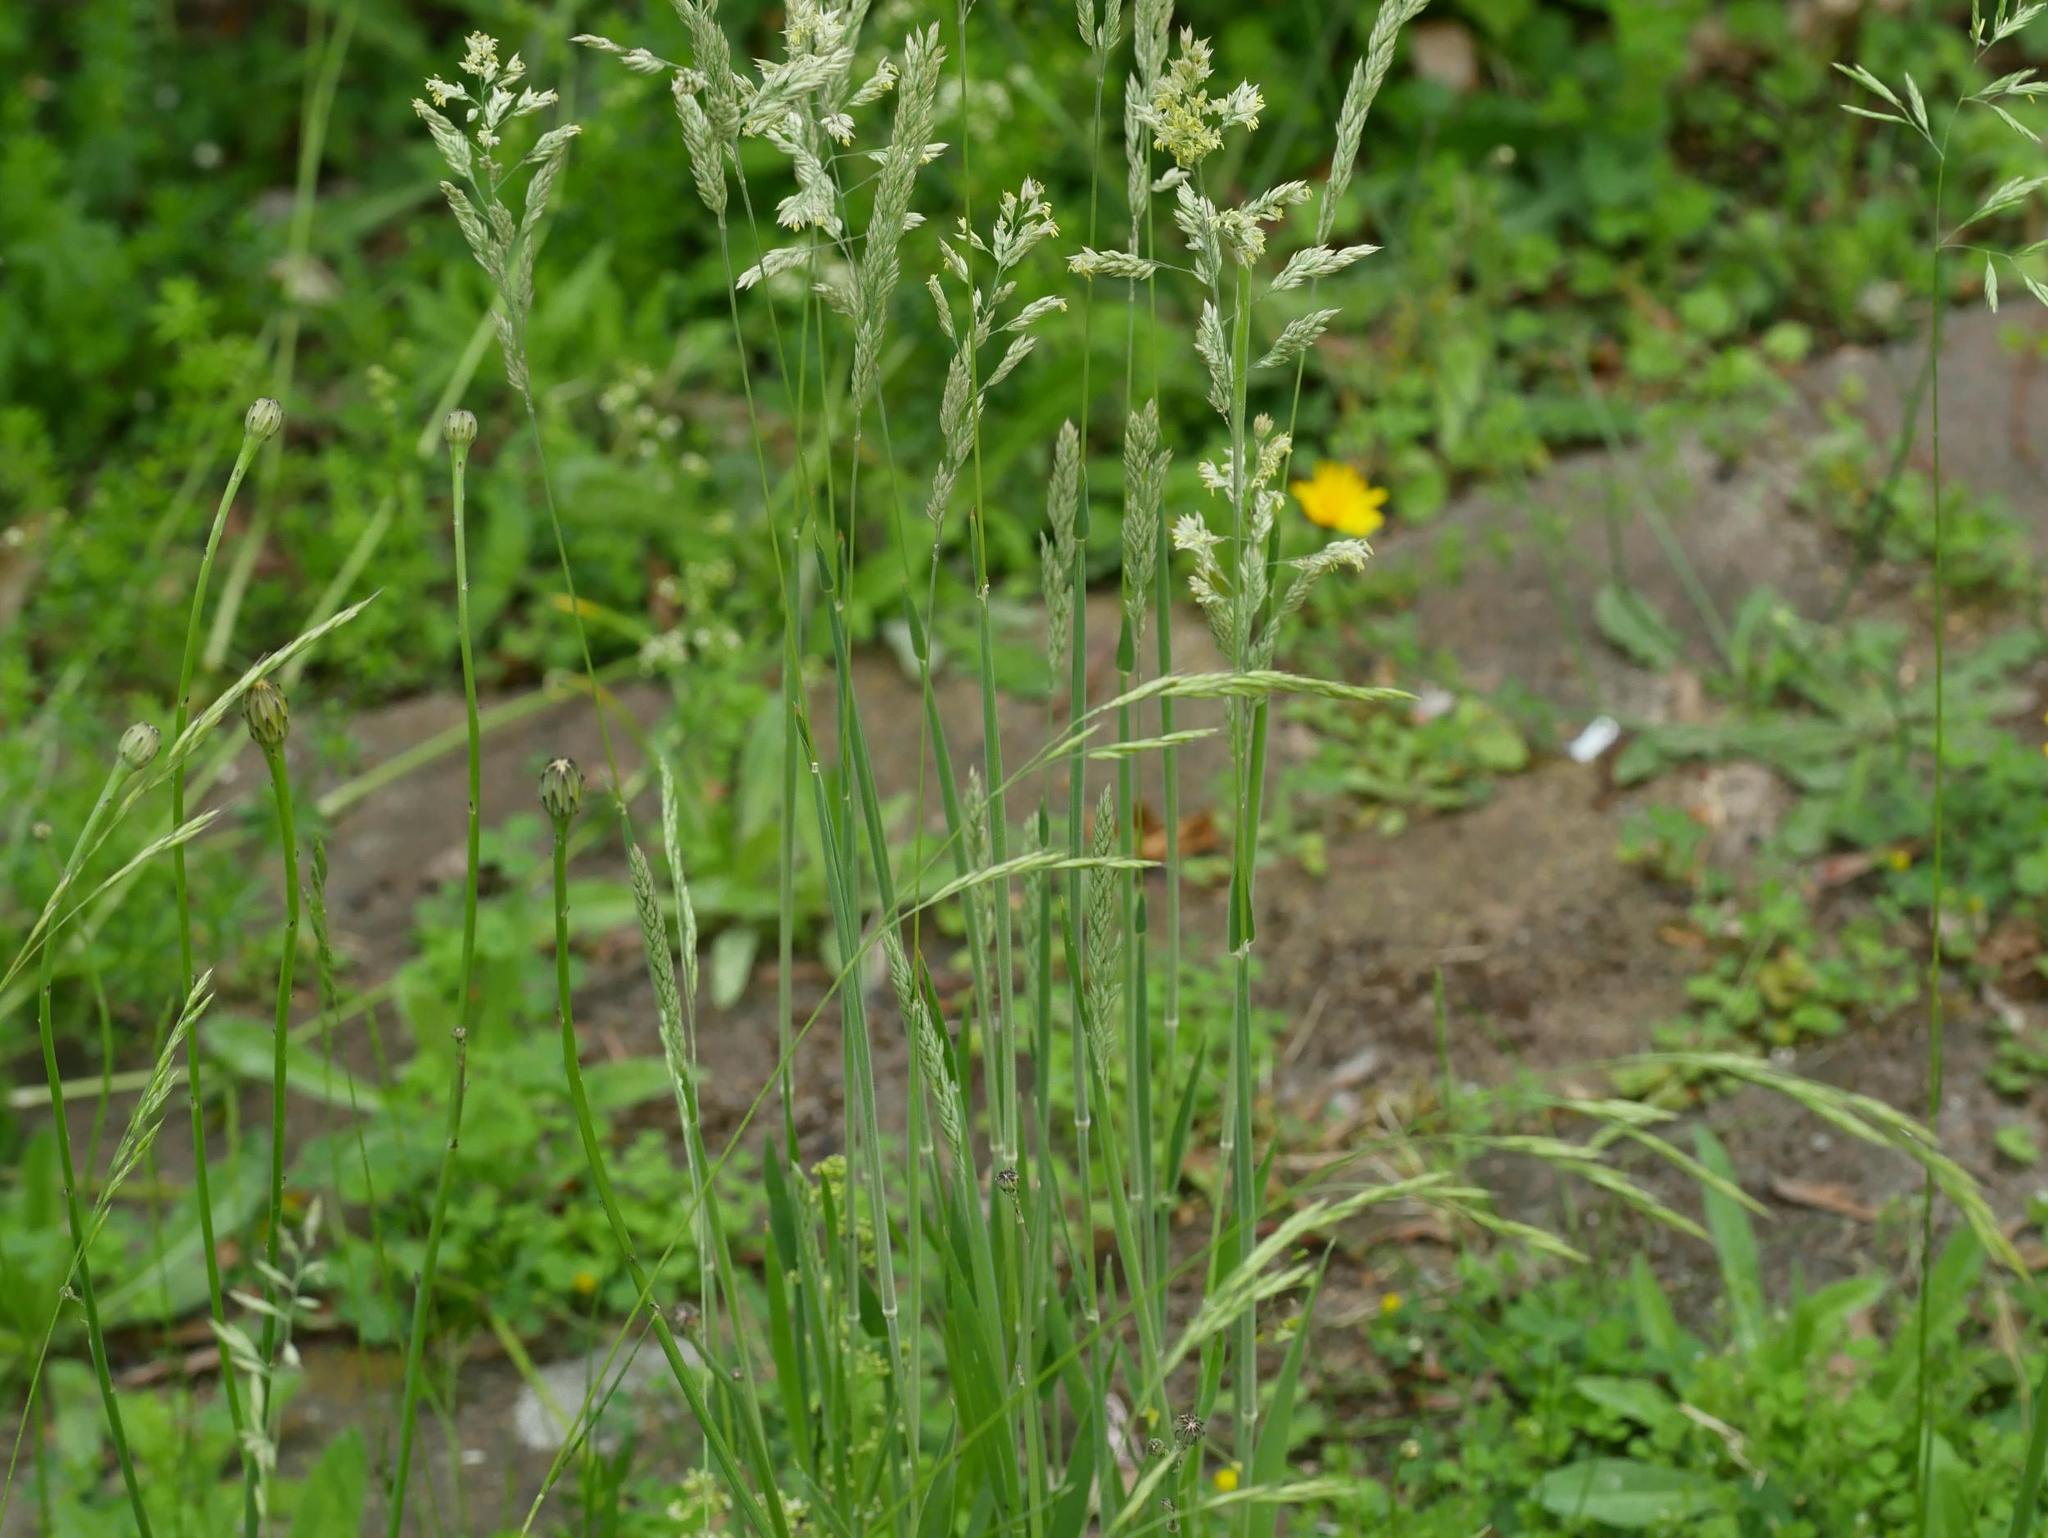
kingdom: Plantae
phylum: Tracheophyta
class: Liliopsida
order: Poales
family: Poaceae
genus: Holcus
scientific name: Holcus lanatus
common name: Yorkshire-fog
